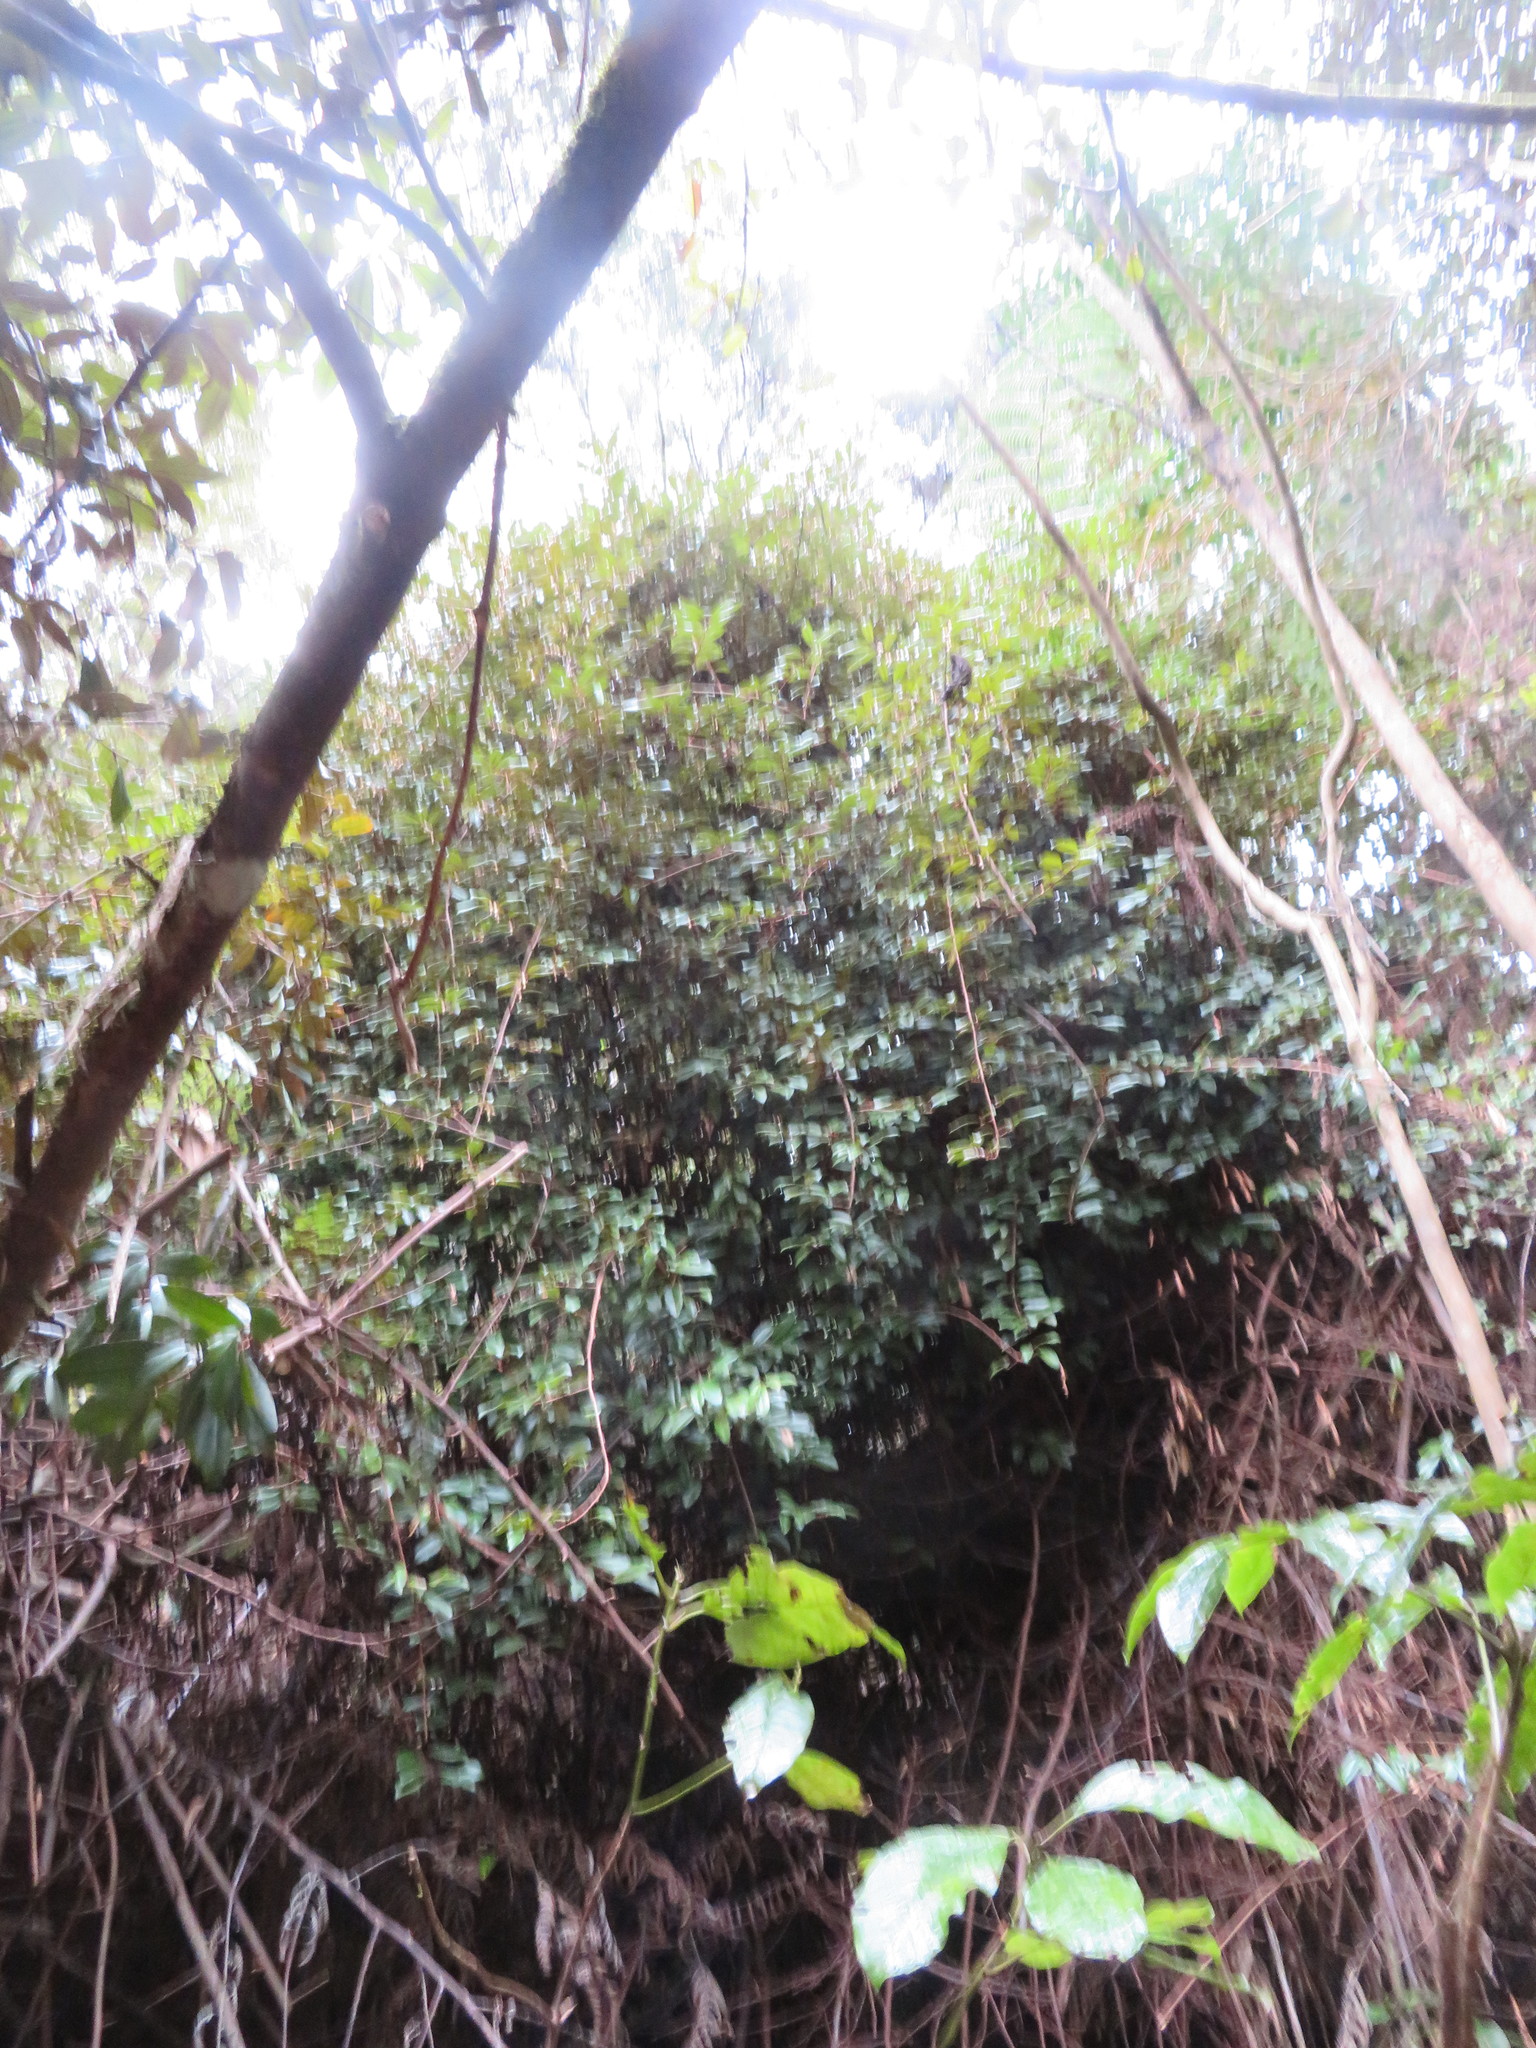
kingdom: Plantae
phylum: Tracheophyta
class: Magnoliopsida
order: Rosales
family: Elaeagnaceae
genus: Elaeagnus
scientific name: Elaeagnus reflexa
